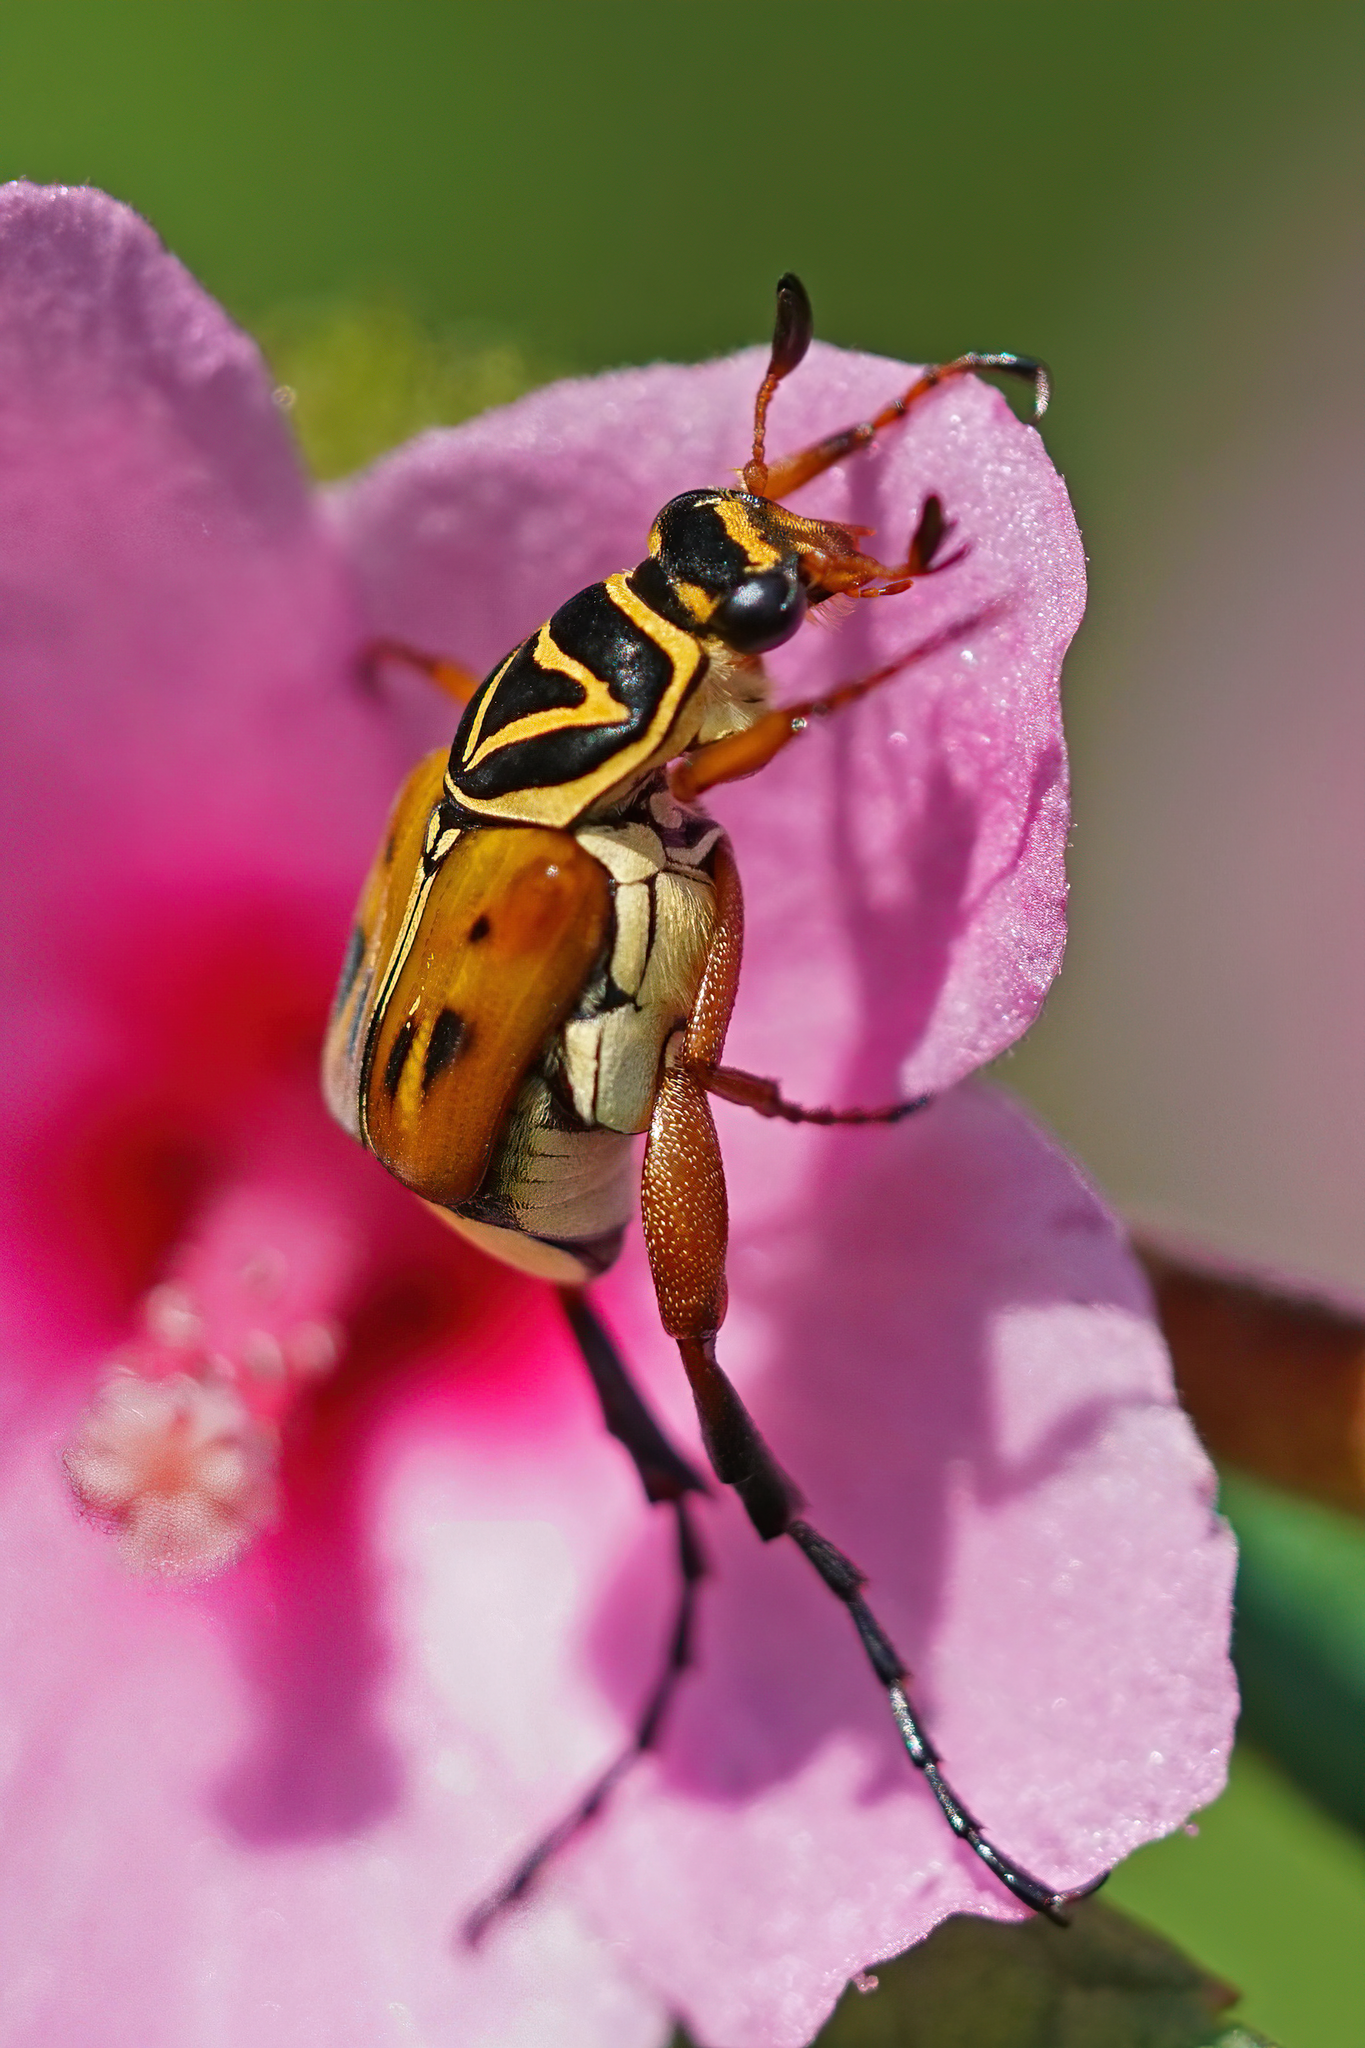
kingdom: Animalia
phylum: Arthropoda
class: Insecta
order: Coleoptera
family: Scarabaeidae
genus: Trigonopeltastes
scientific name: Trigonopeltastes delta
